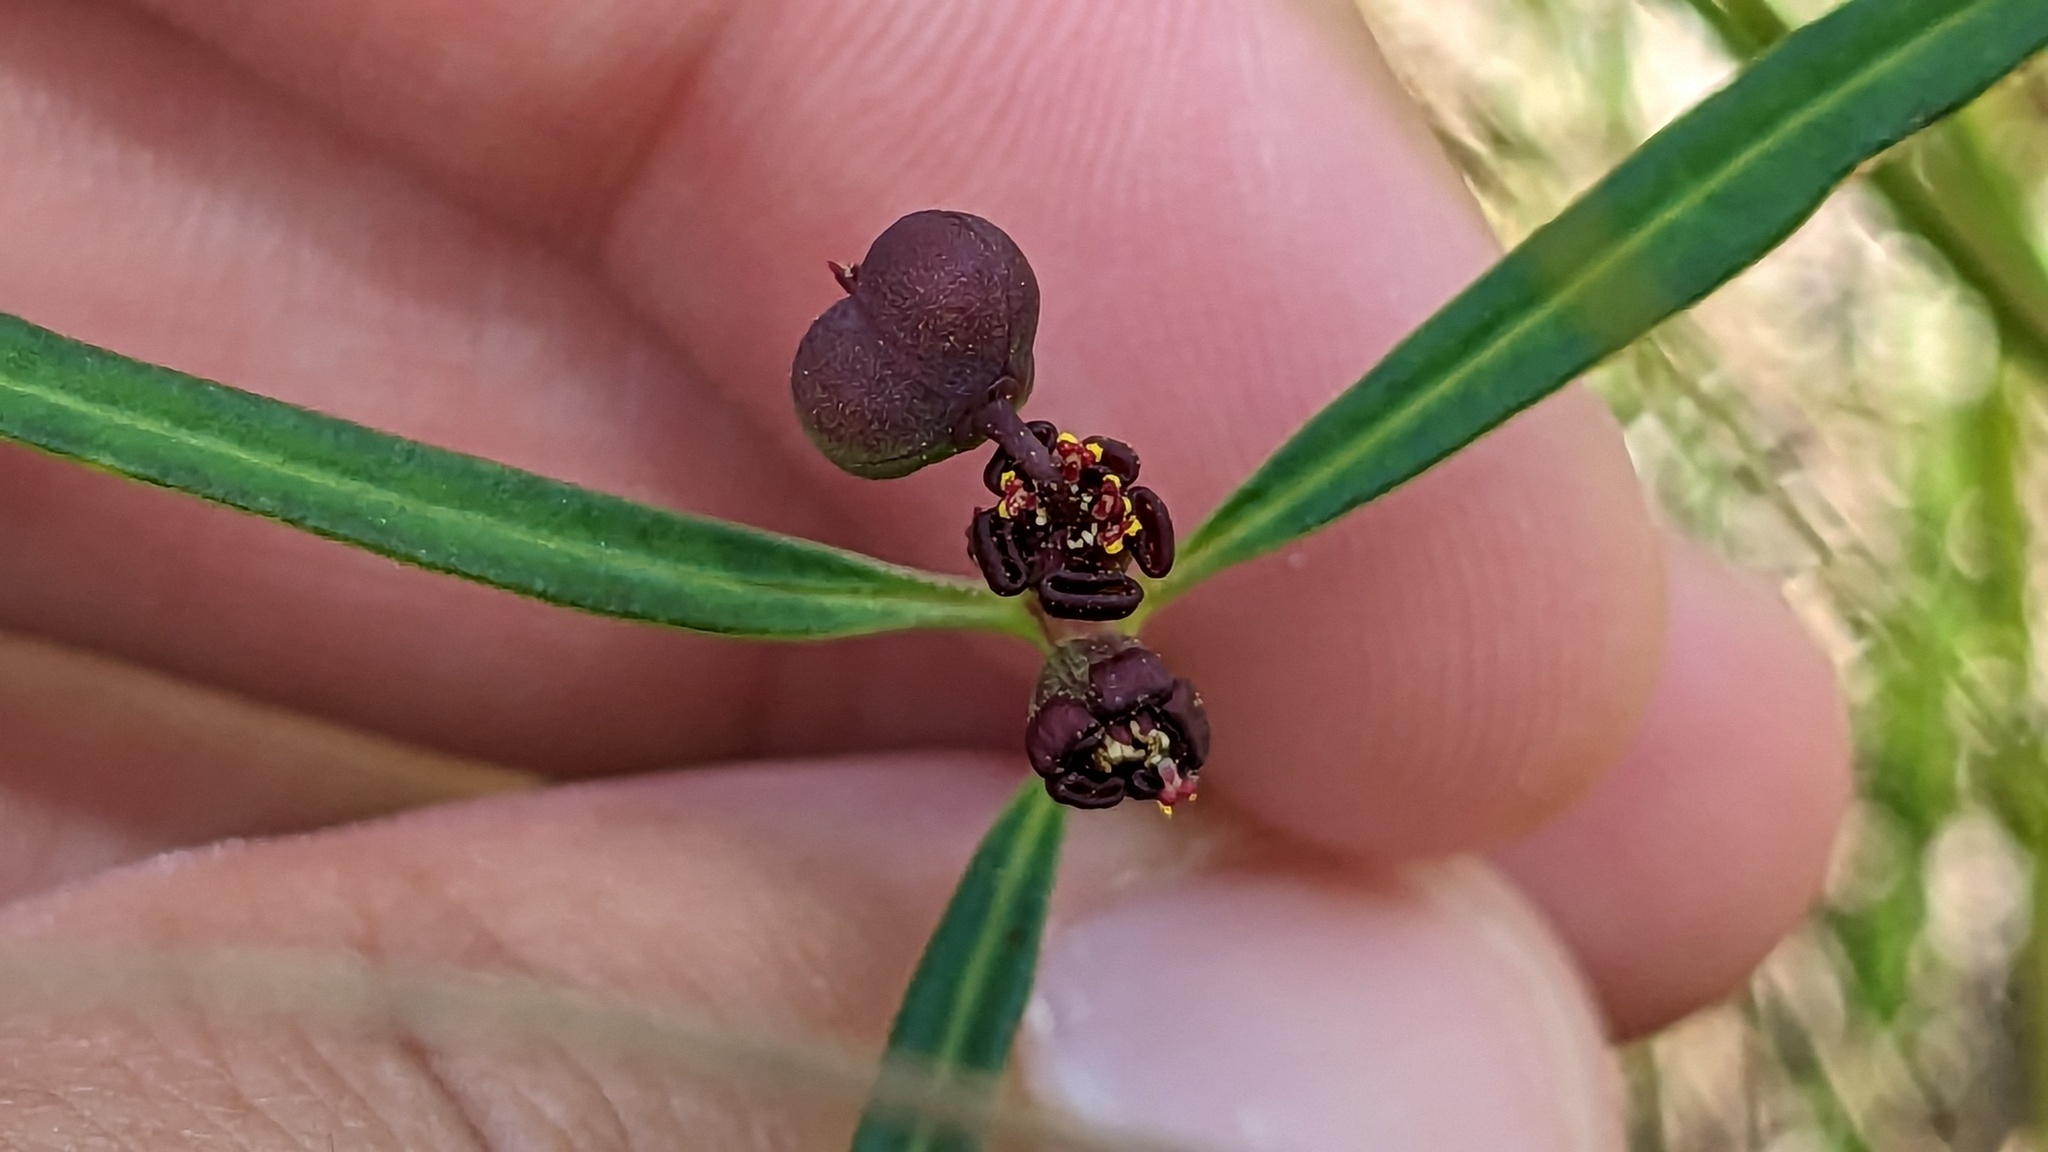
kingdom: Plantae
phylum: Tracheophyta
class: Magnoliopsida
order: Malpighiales
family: Euphorbiaceae
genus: Euphorbia
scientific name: Euphorbia pinetorum
